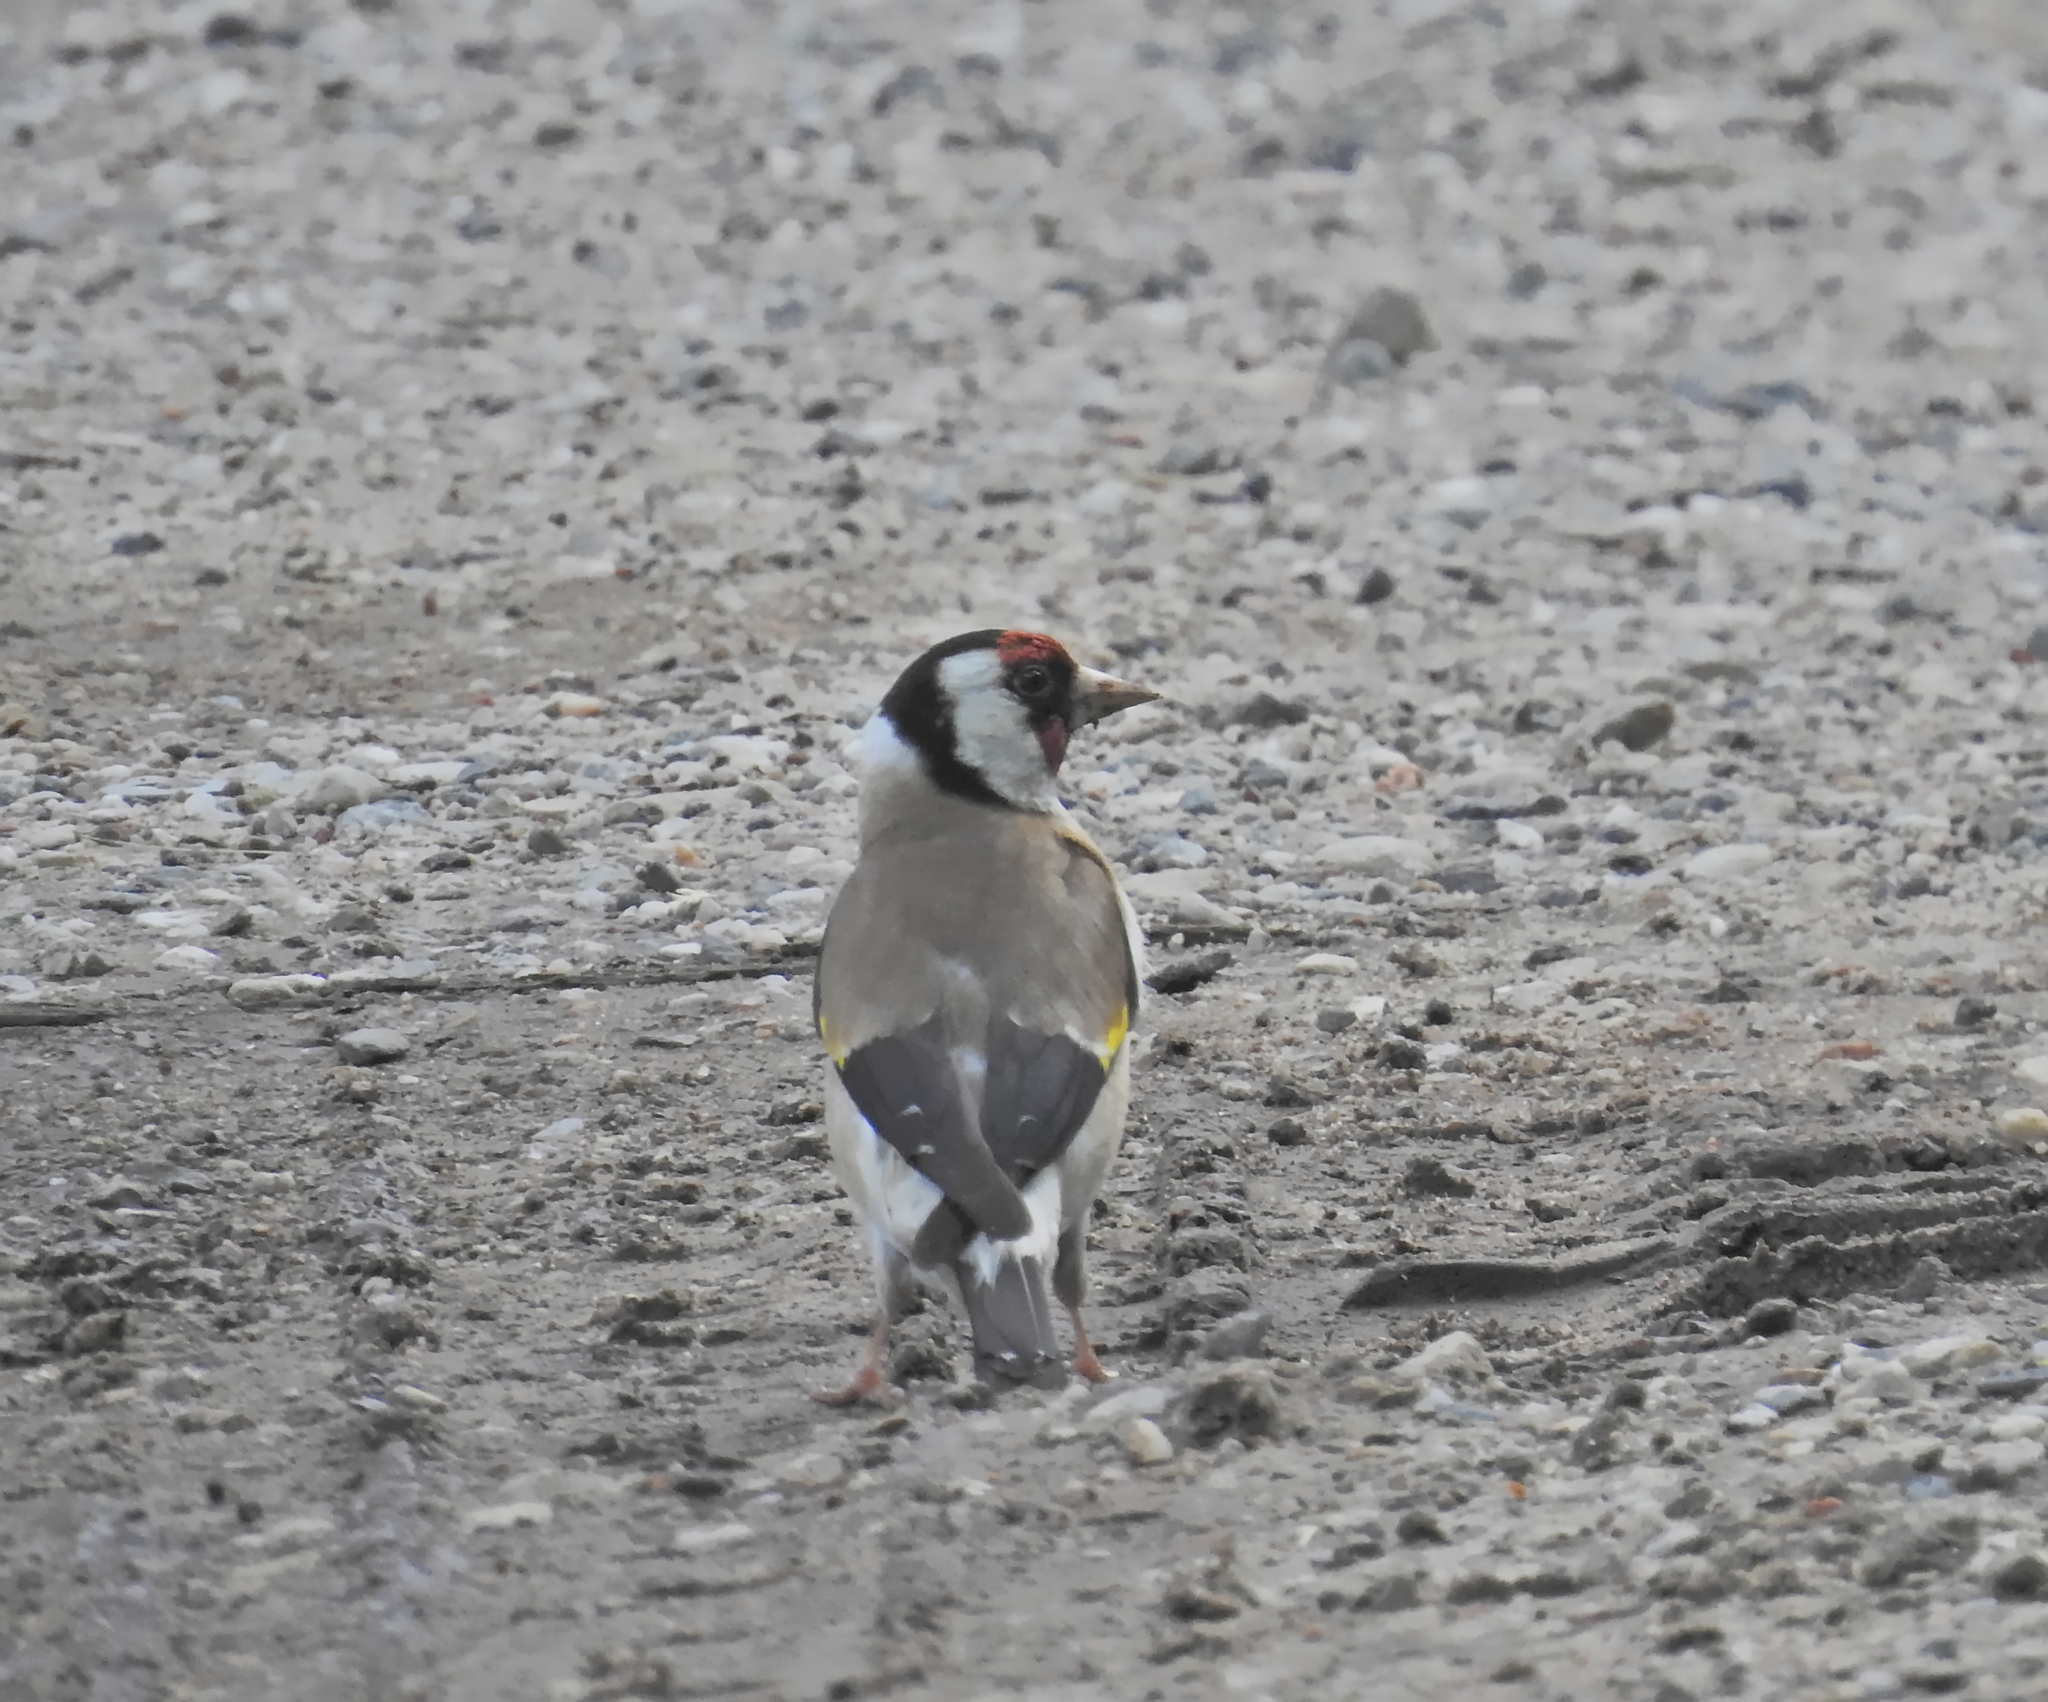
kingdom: Animalia
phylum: Chordata
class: Aves
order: Passeriformes
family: Fringillidae
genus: Carduelis
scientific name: Carduelis carduelis
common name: European goldfinch
